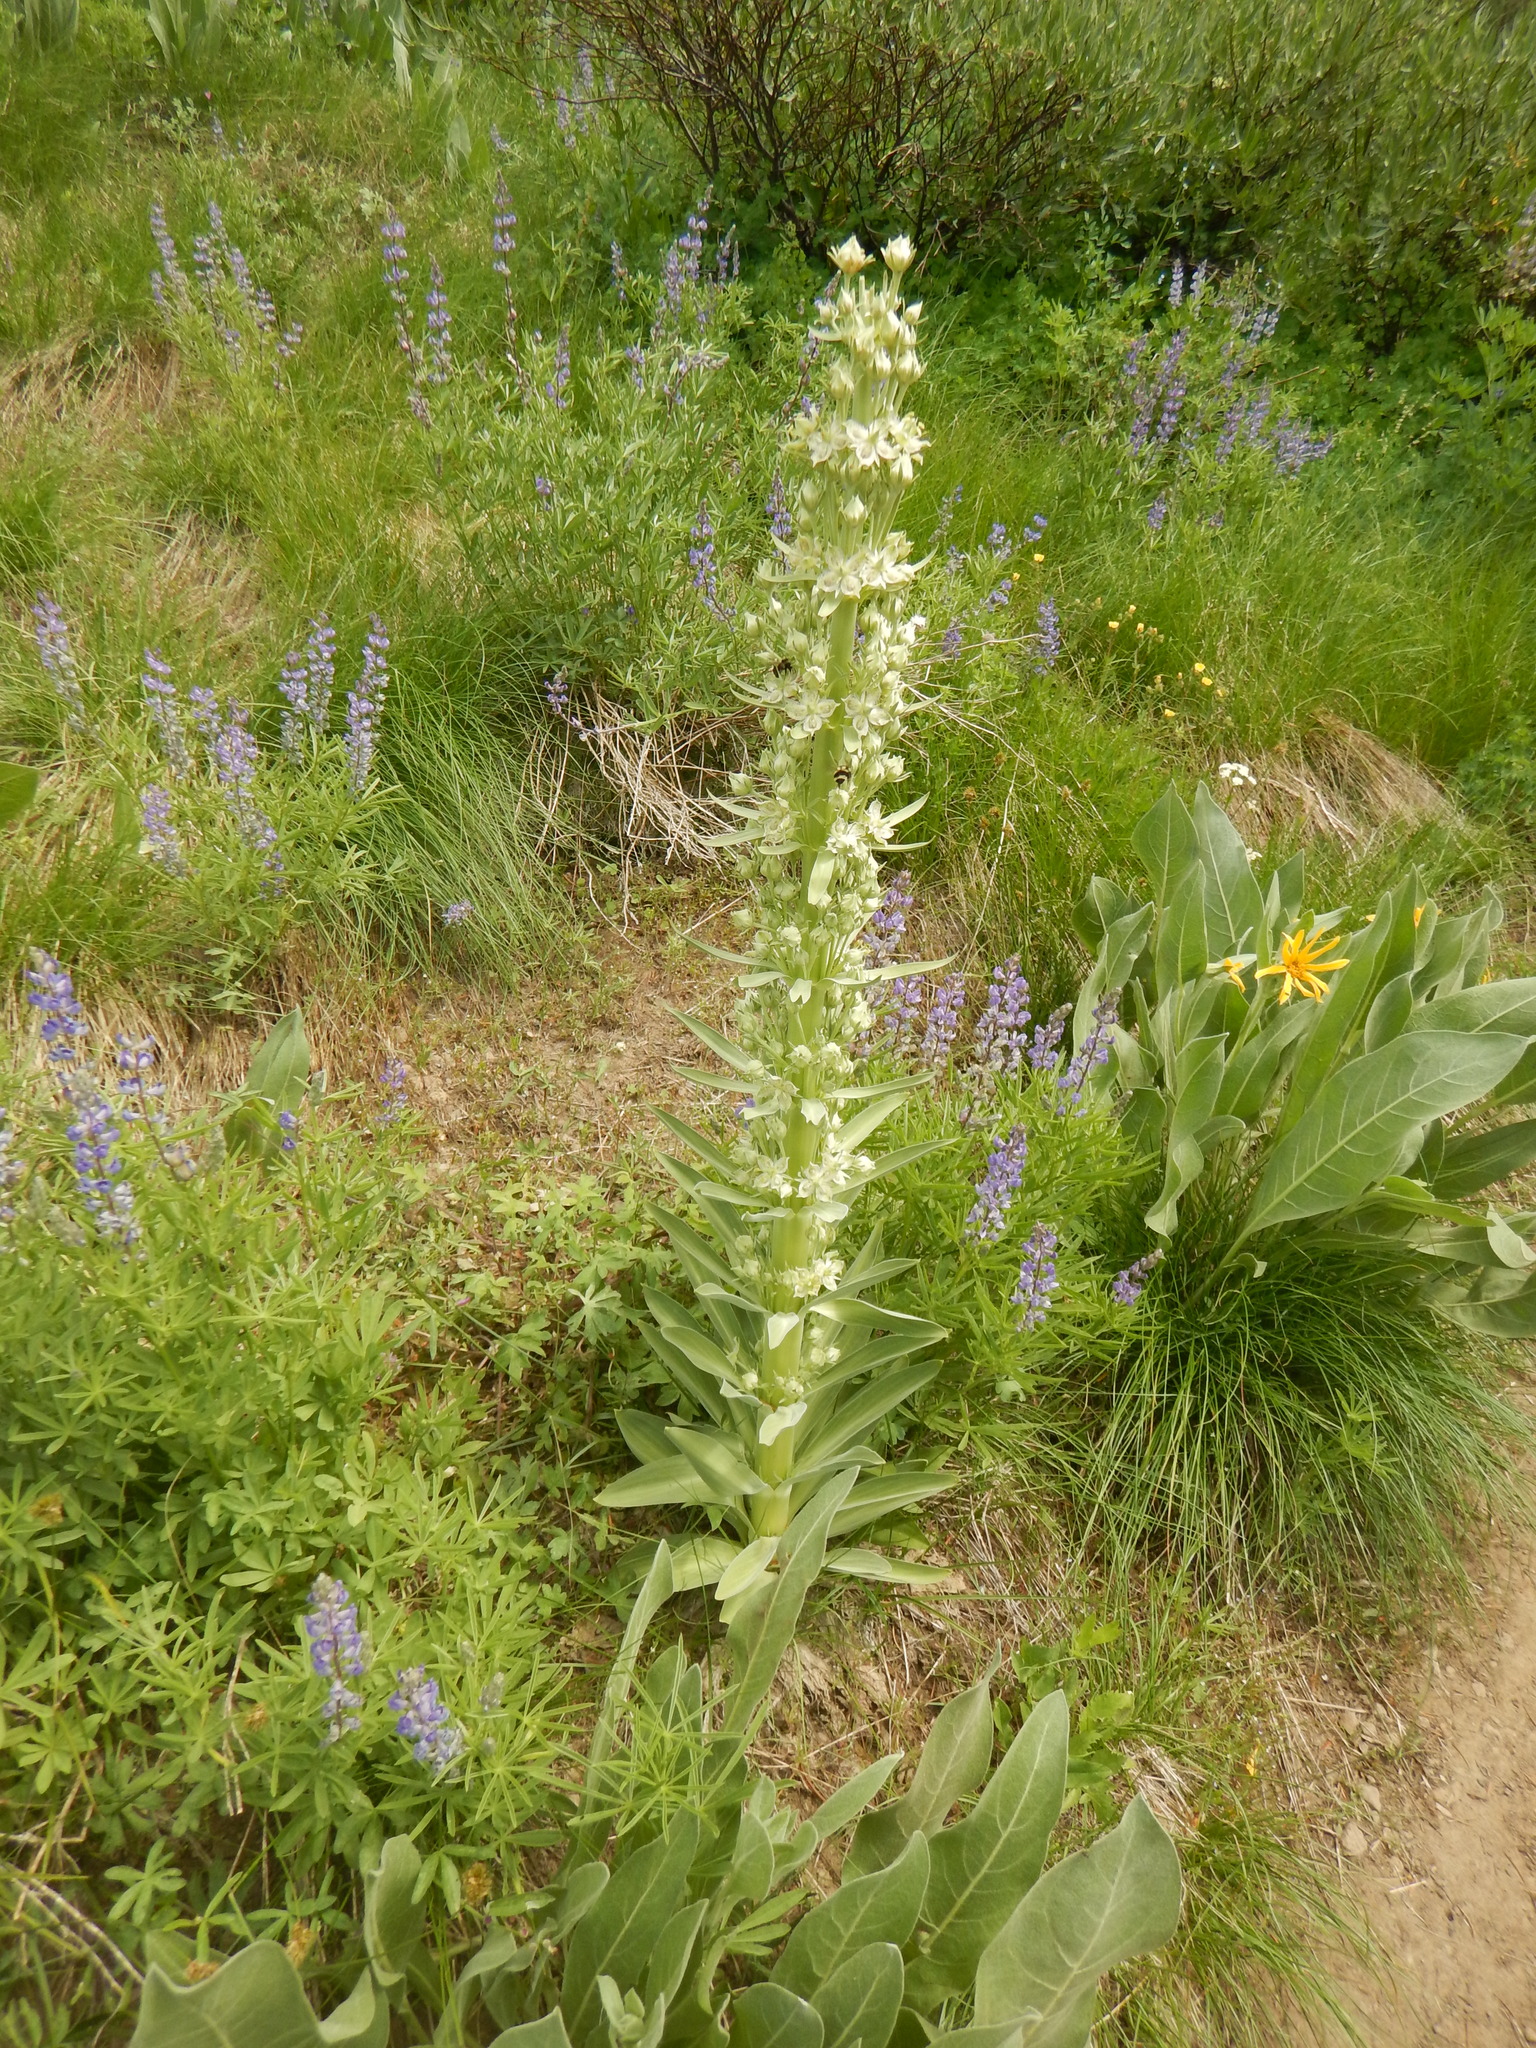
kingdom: Plantae
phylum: Tracheophyta
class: Magnoliopsida
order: Gentianales
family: Gentianaceae
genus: Frasera
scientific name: Frasera speciosa
